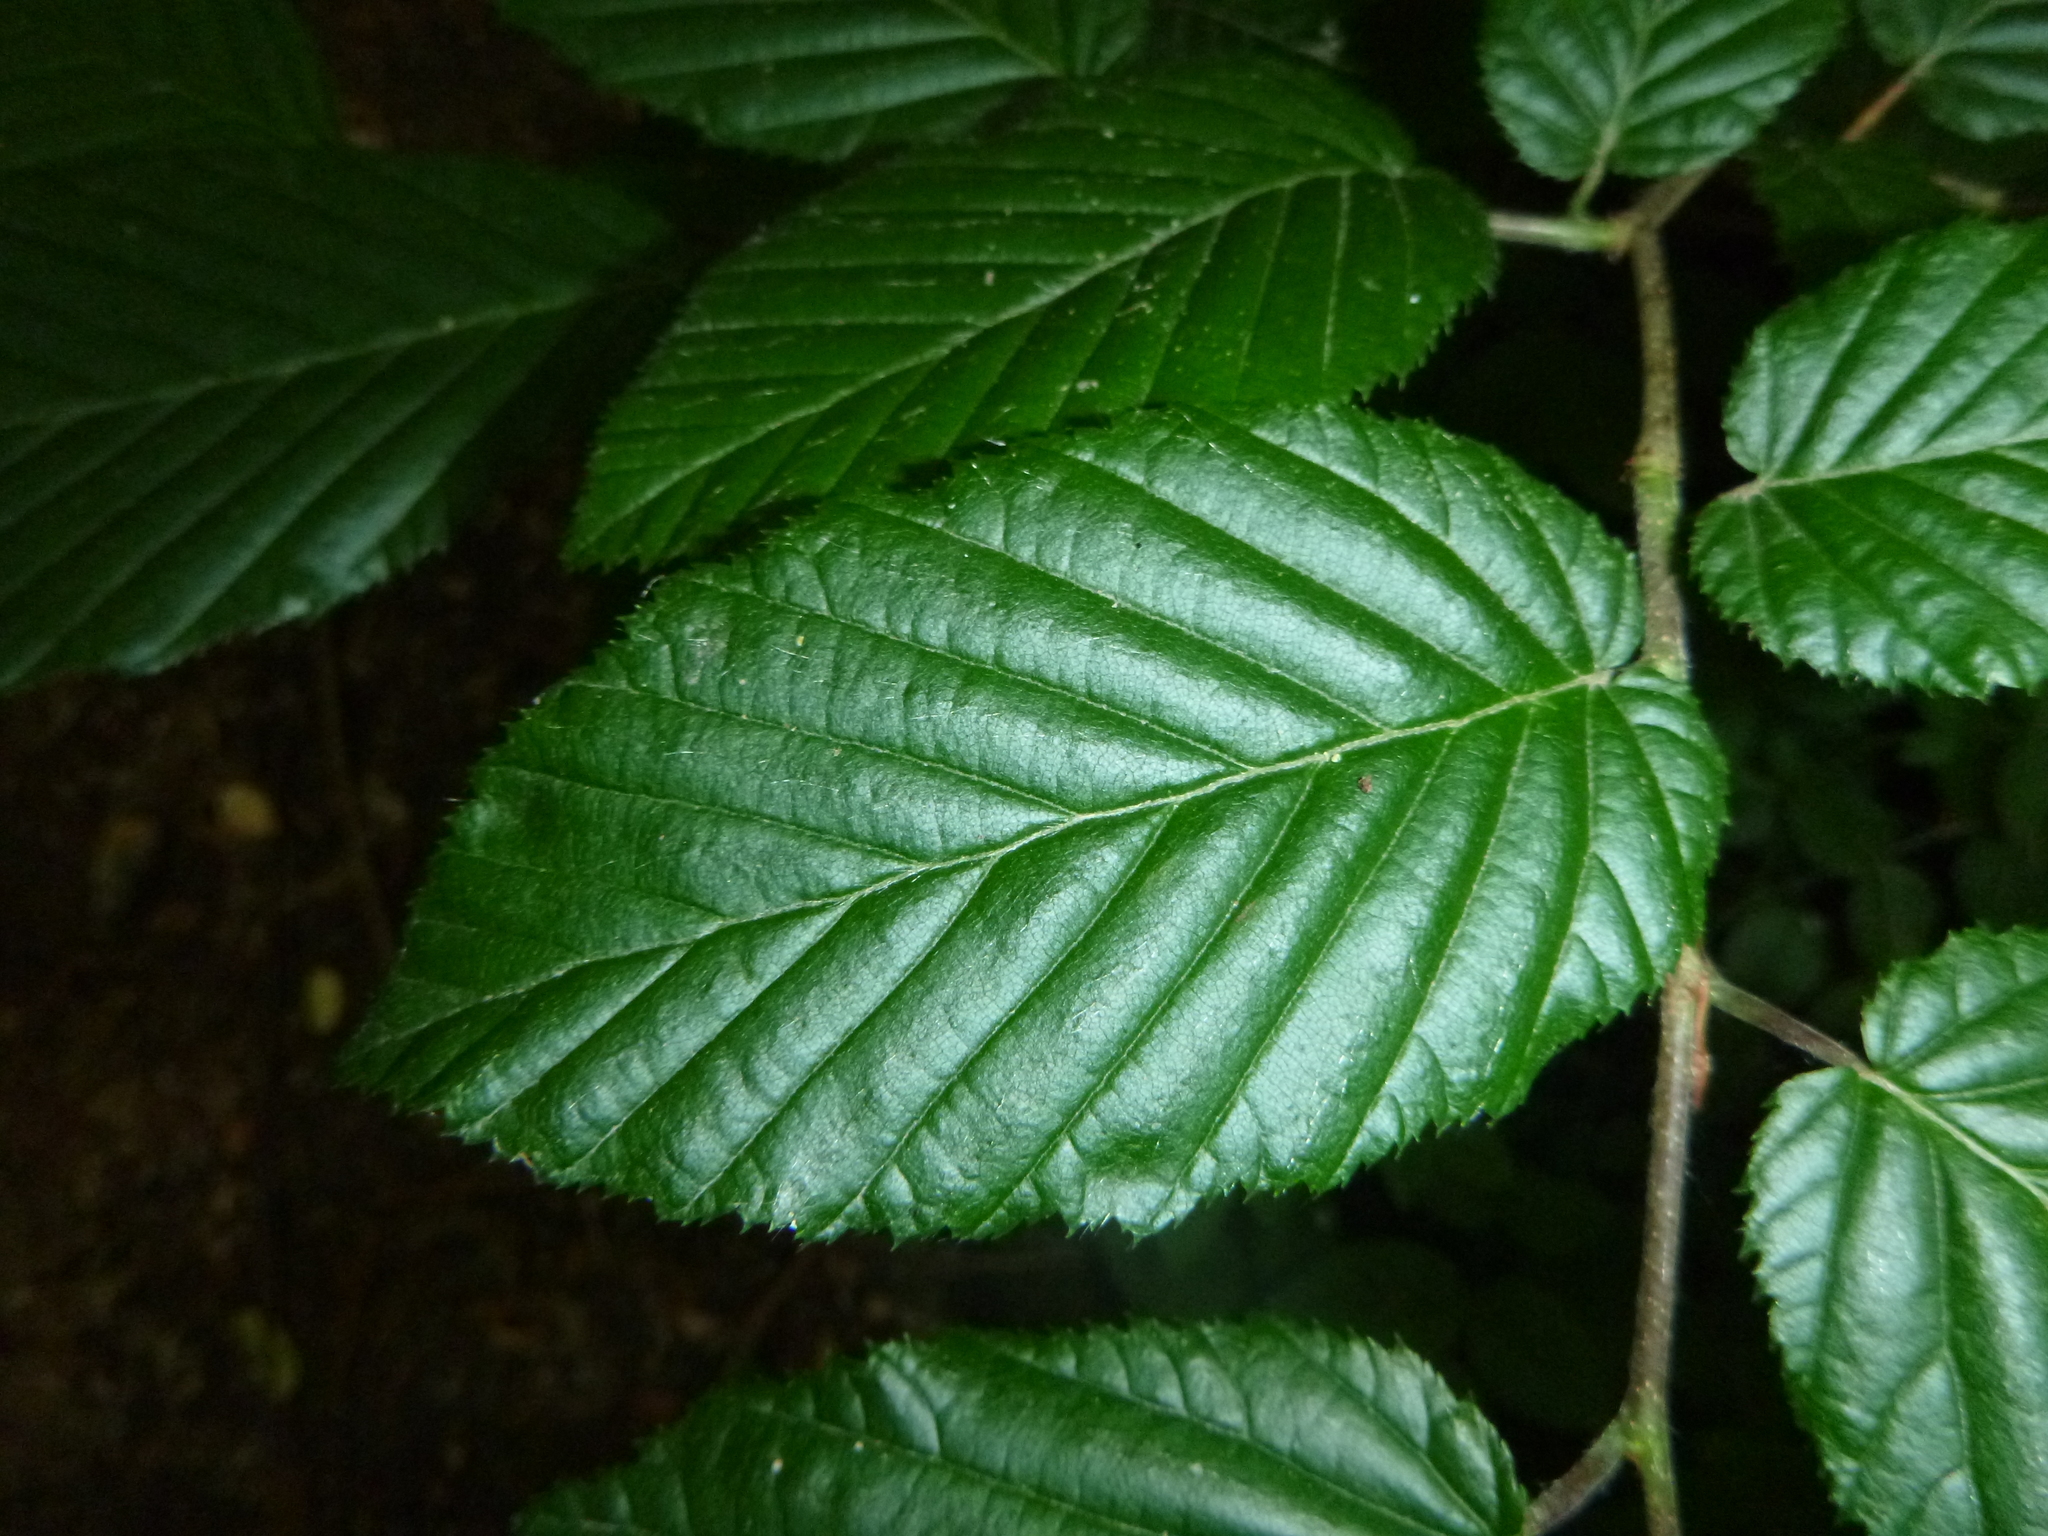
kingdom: Plantae
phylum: Tracheophyta
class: Magnoliopsida
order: Fagales
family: Betulaceae
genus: Carpinus
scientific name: Carpinus betulus
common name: Hornbeam
